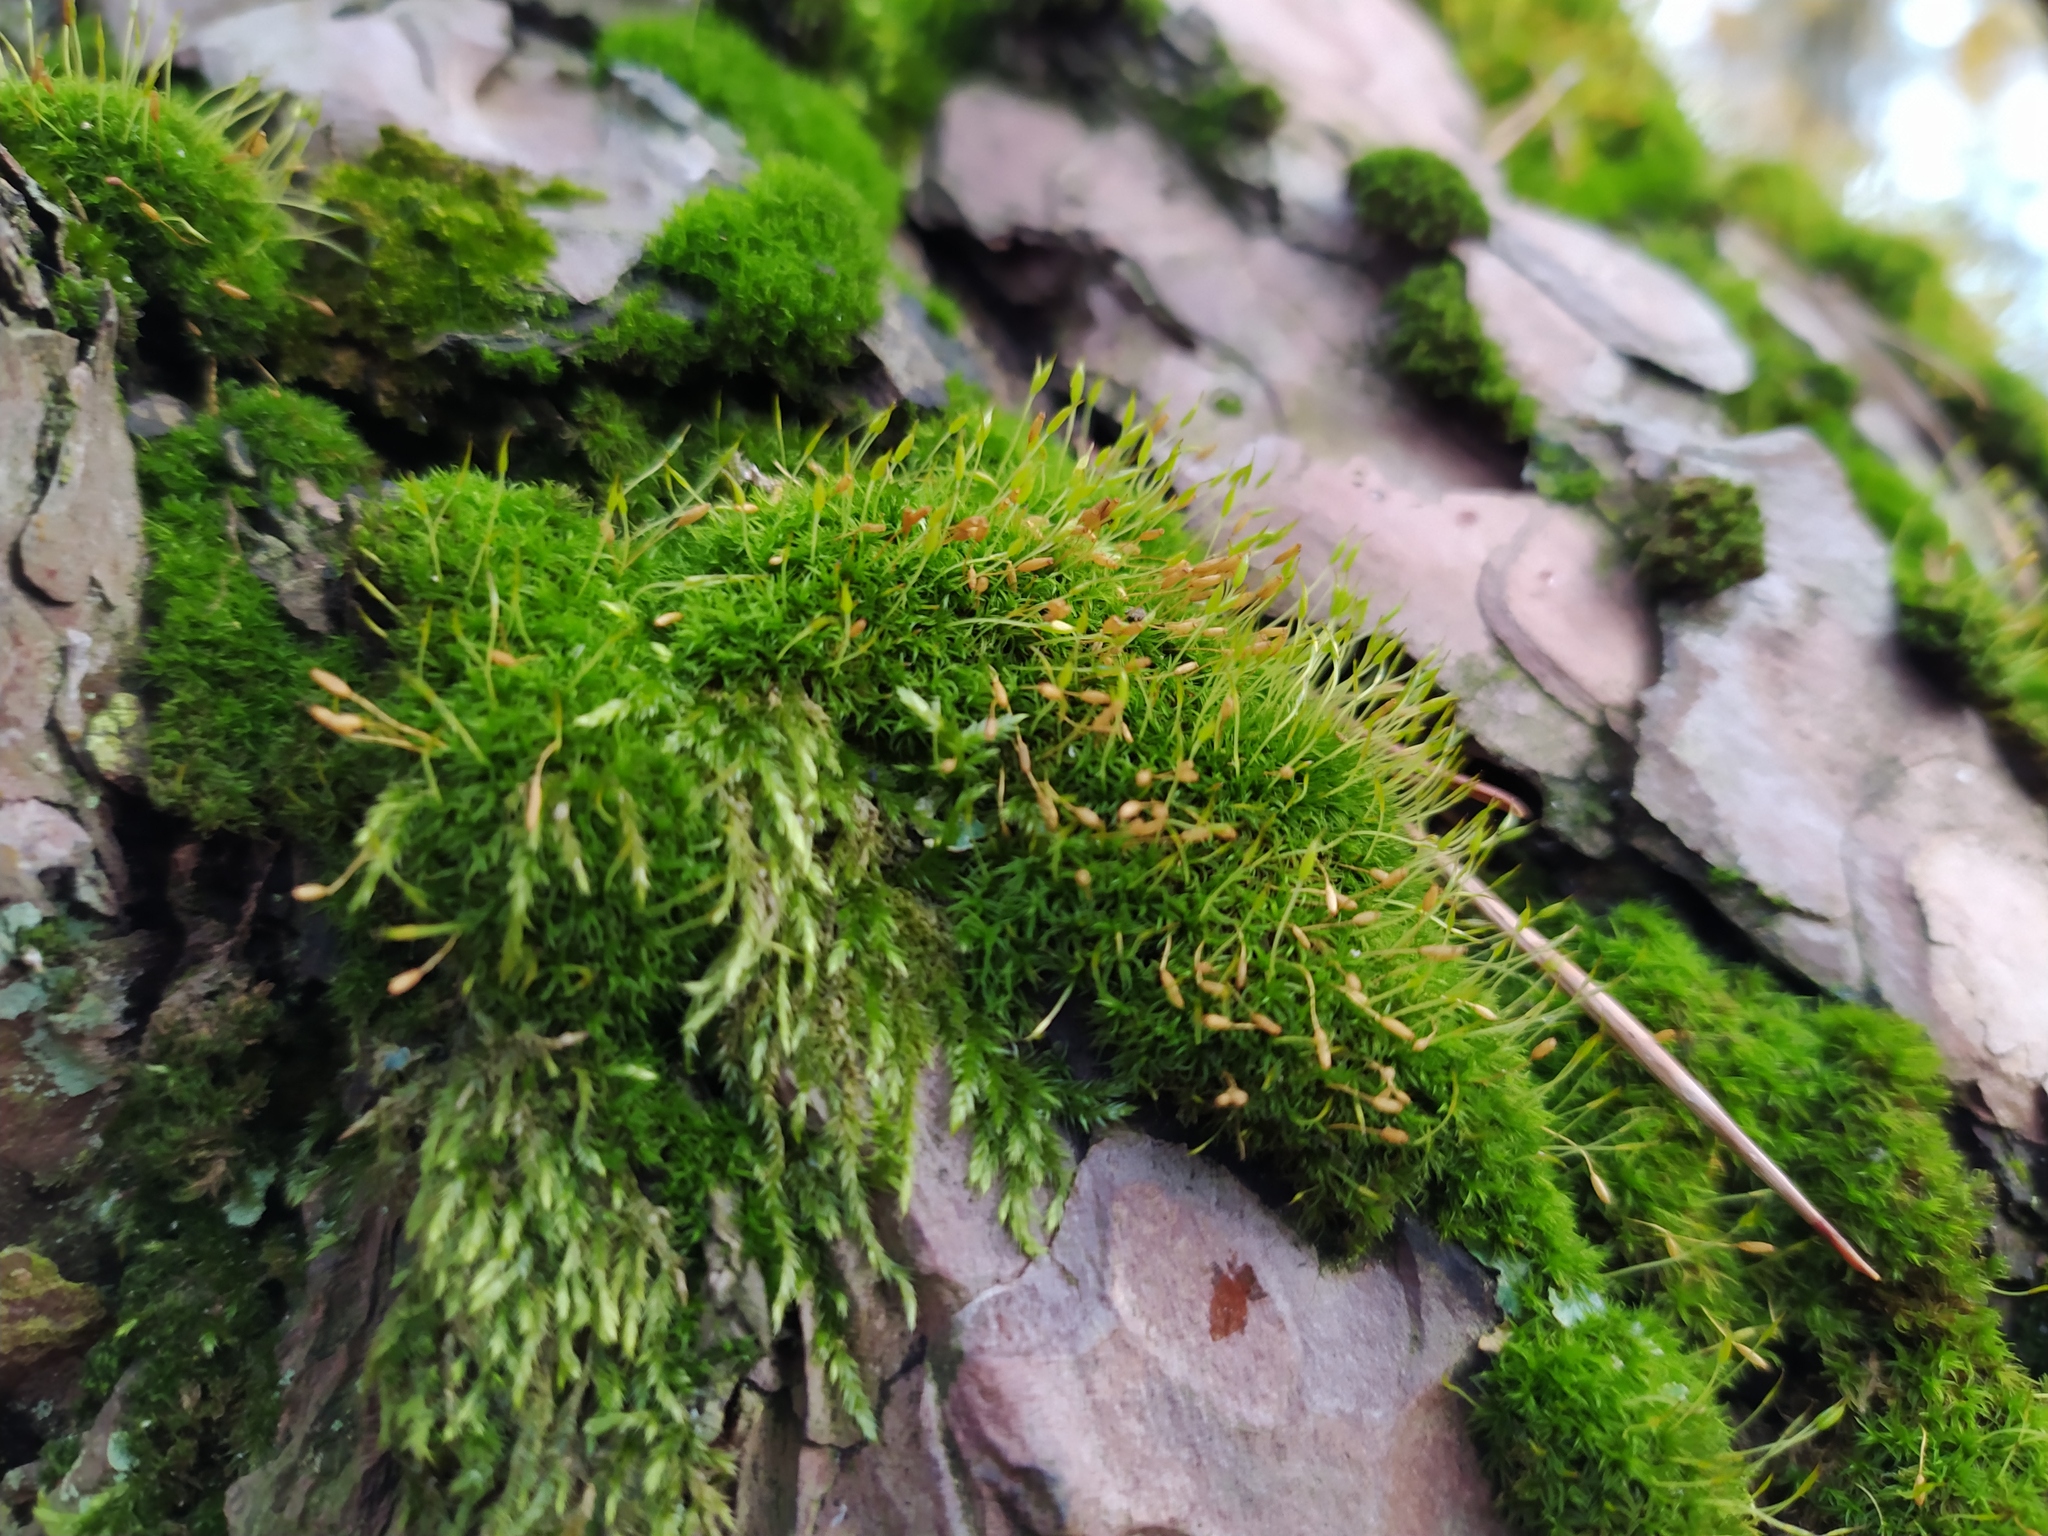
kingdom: Plantae
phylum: Bryophyta
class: Bryopsida
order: Dicranales
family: Rhabdoweisiaceae
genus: Dicranoweisia
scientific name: Dicranoweisia cirrata
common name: Common pincushion
